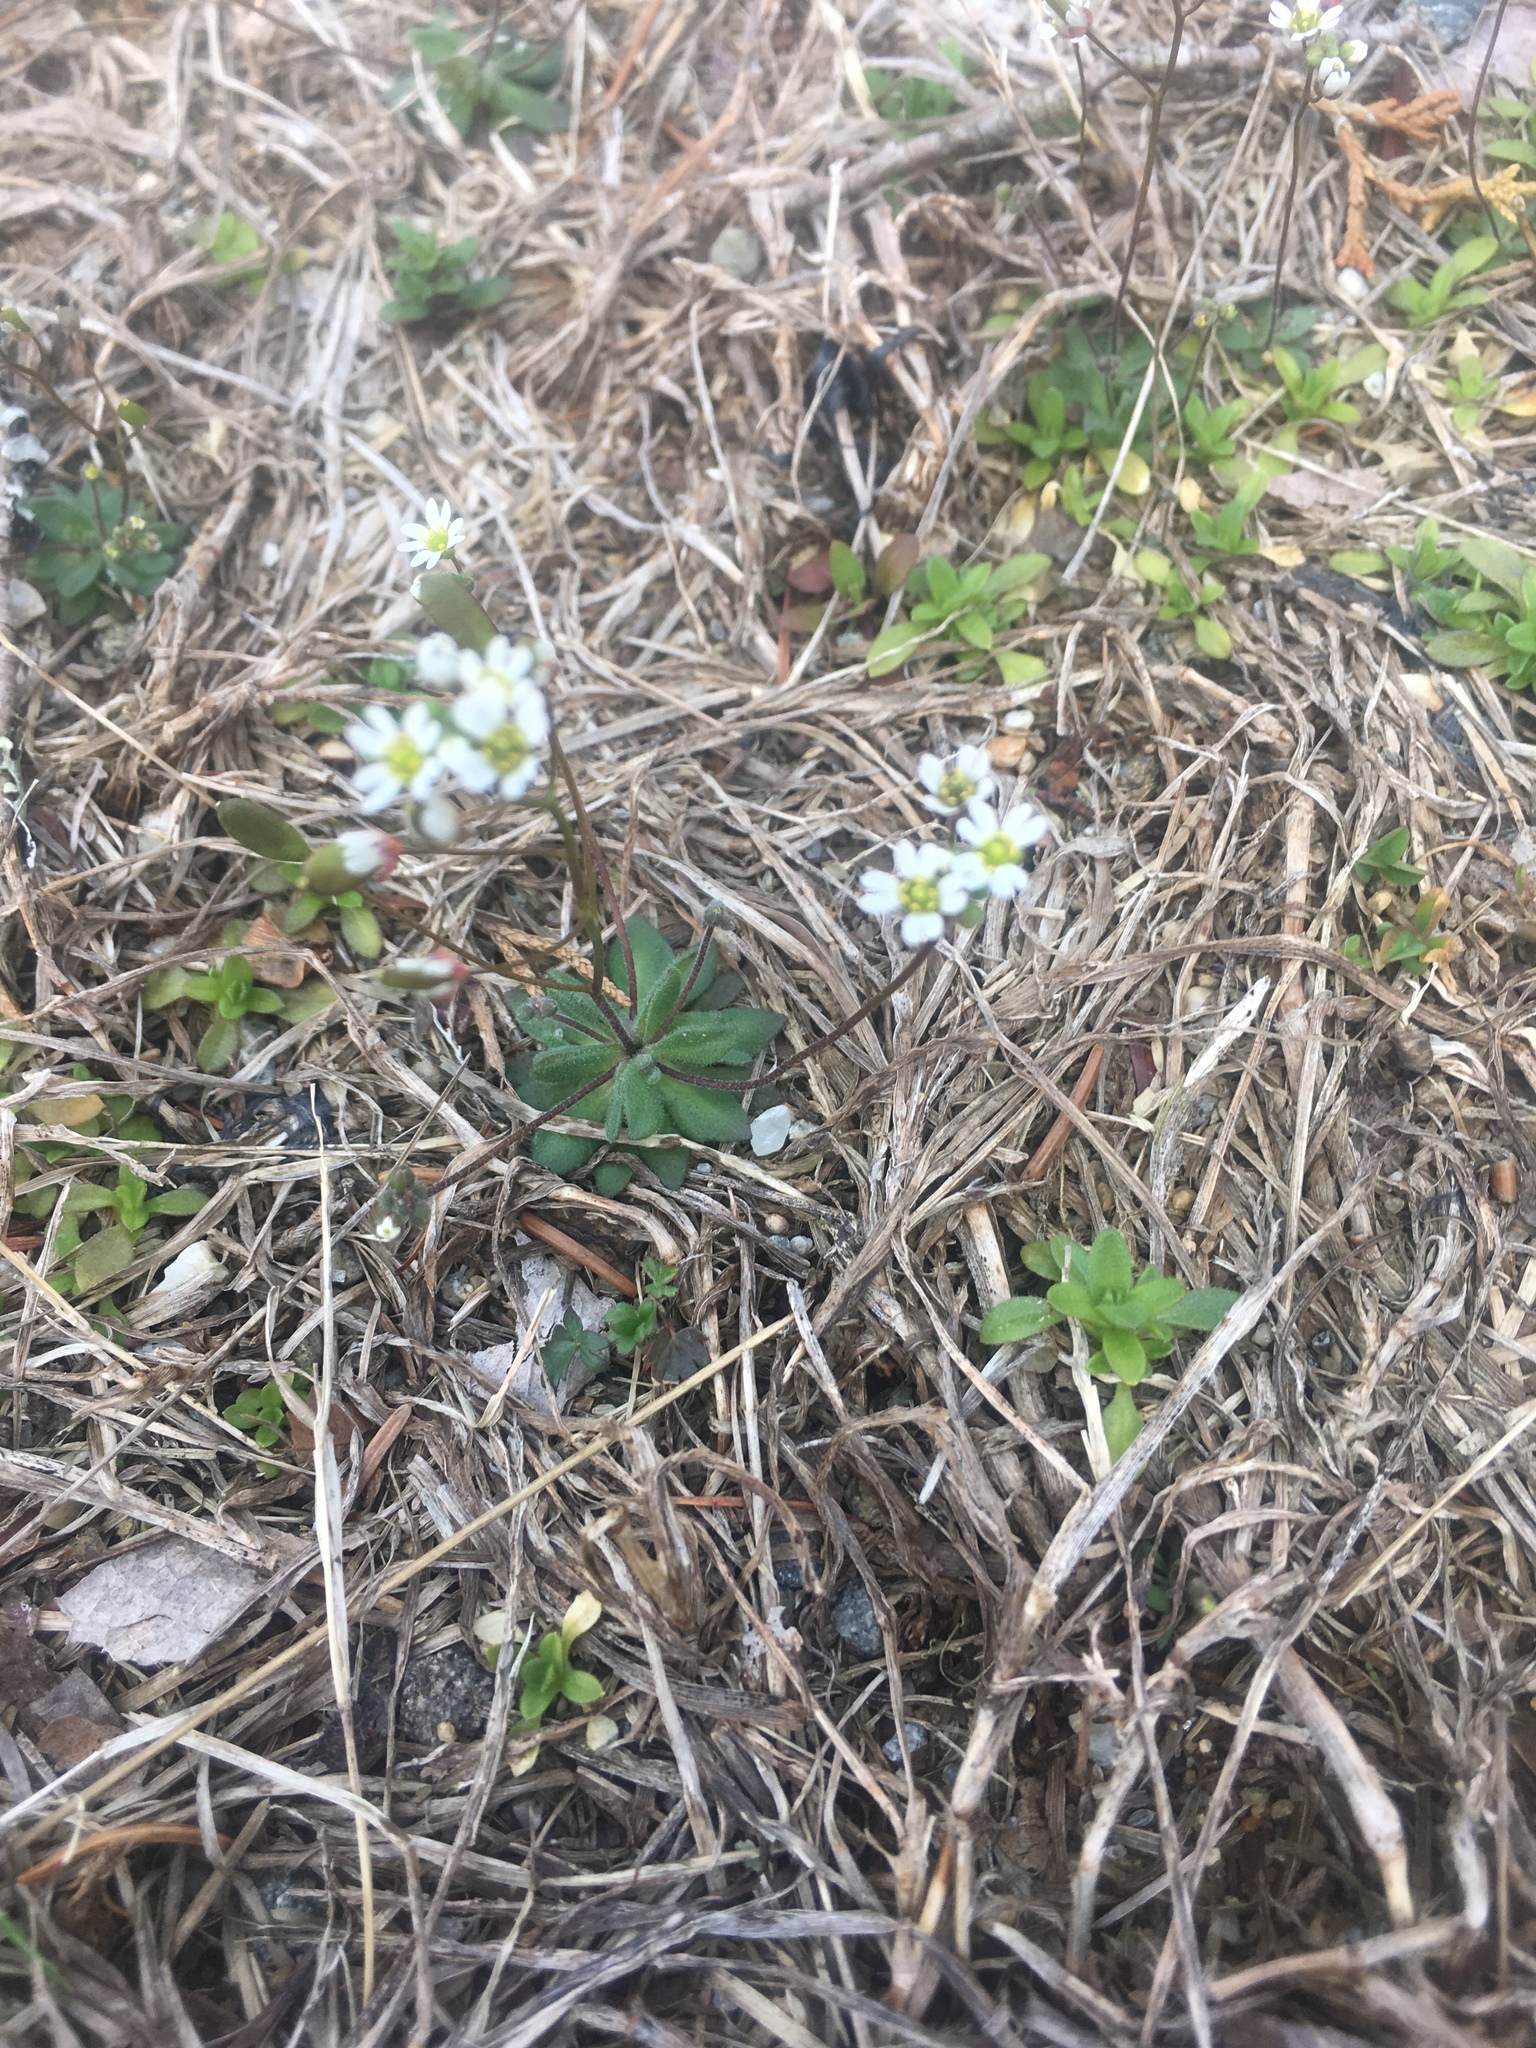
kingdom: Plantae
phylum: Tracheophyta
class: Magnoliopsida
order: Brassicales
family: Brassicaceae
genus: Draba
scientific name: Draba verna
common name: Spring draba
